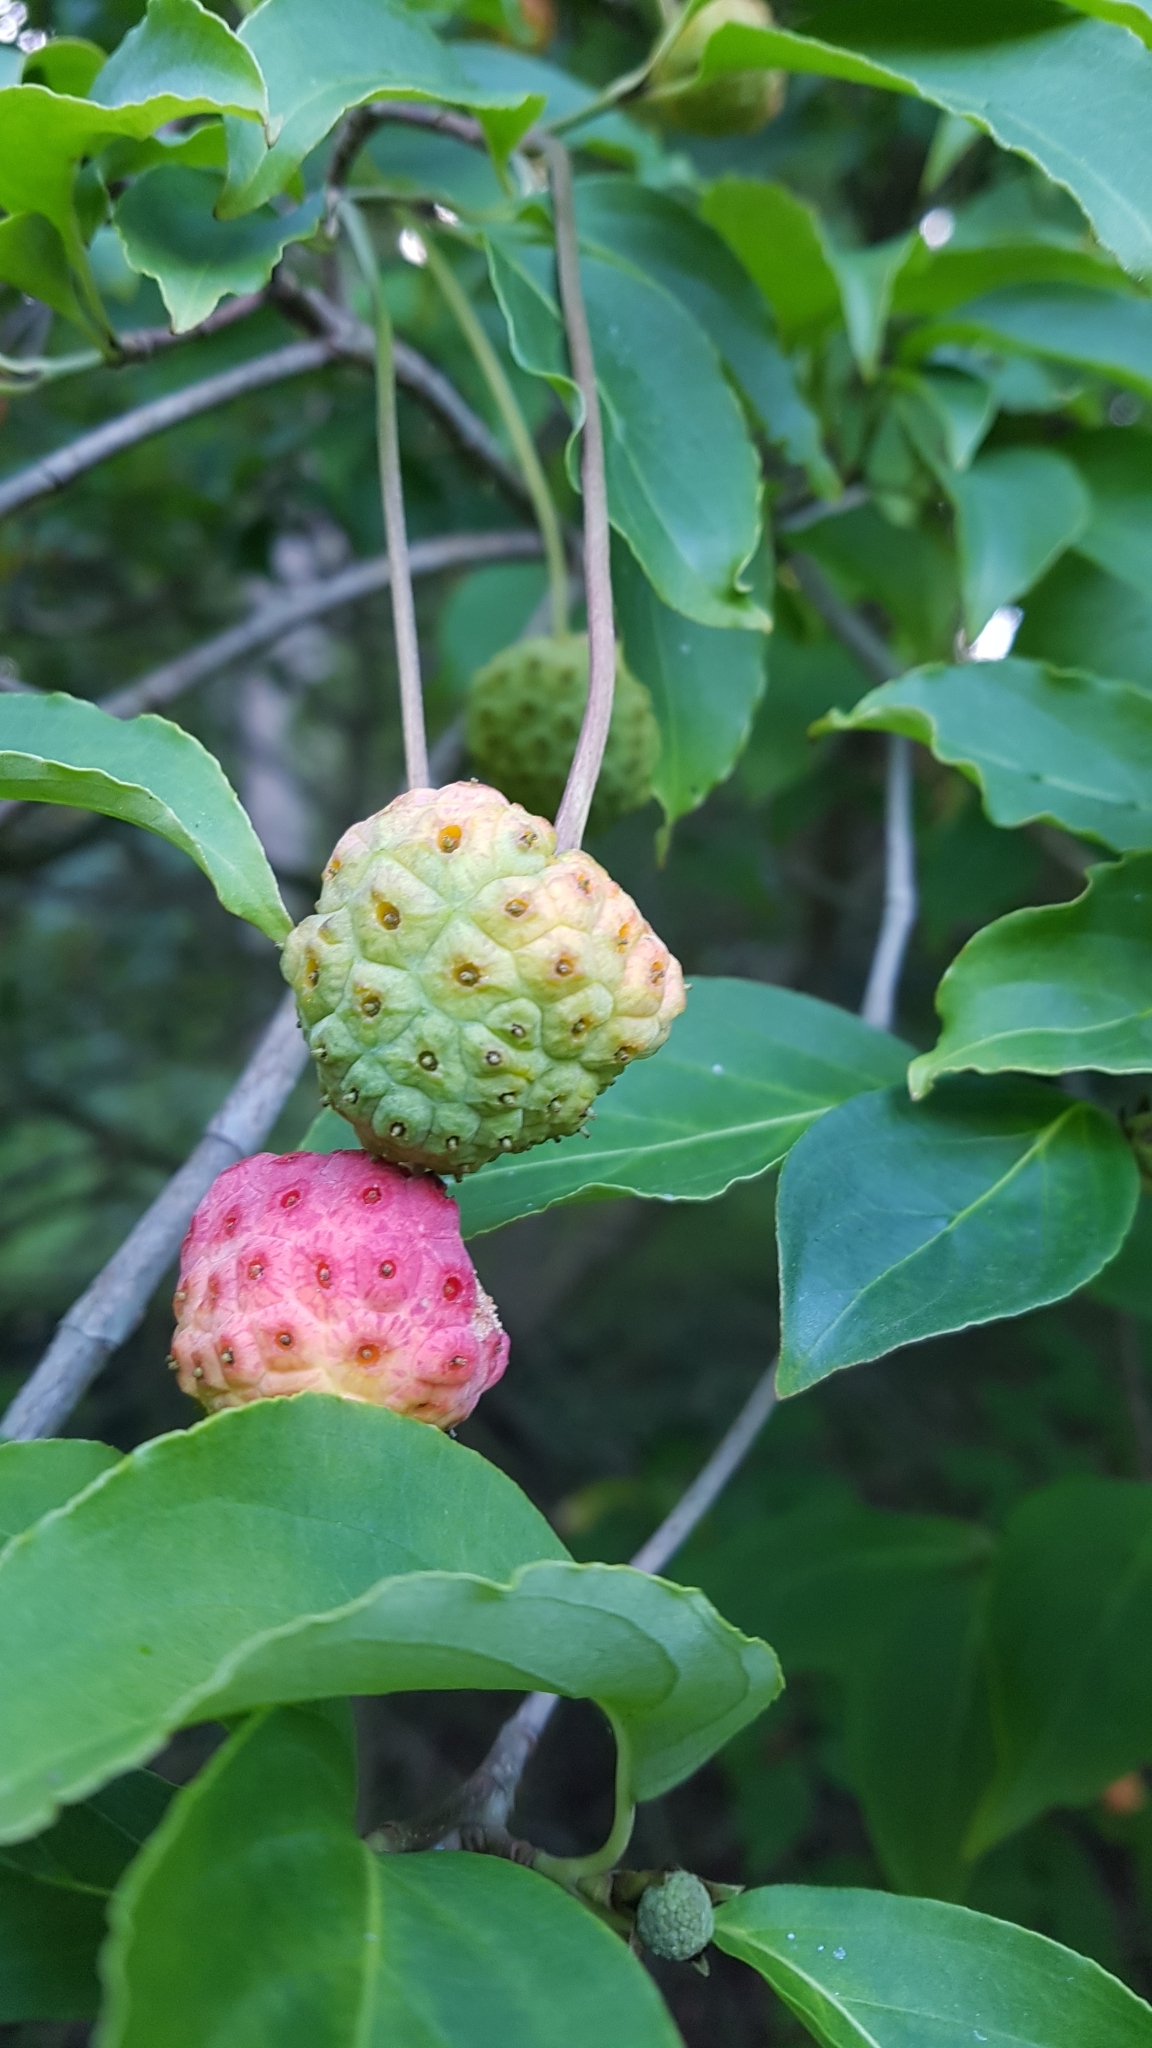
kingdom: Plantae
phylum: Tracheophyta
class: Magnoliopsida
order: Cornales
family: Cornaceae
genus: Cornus
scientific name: Cornus capitata
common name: Bentham's cornel
